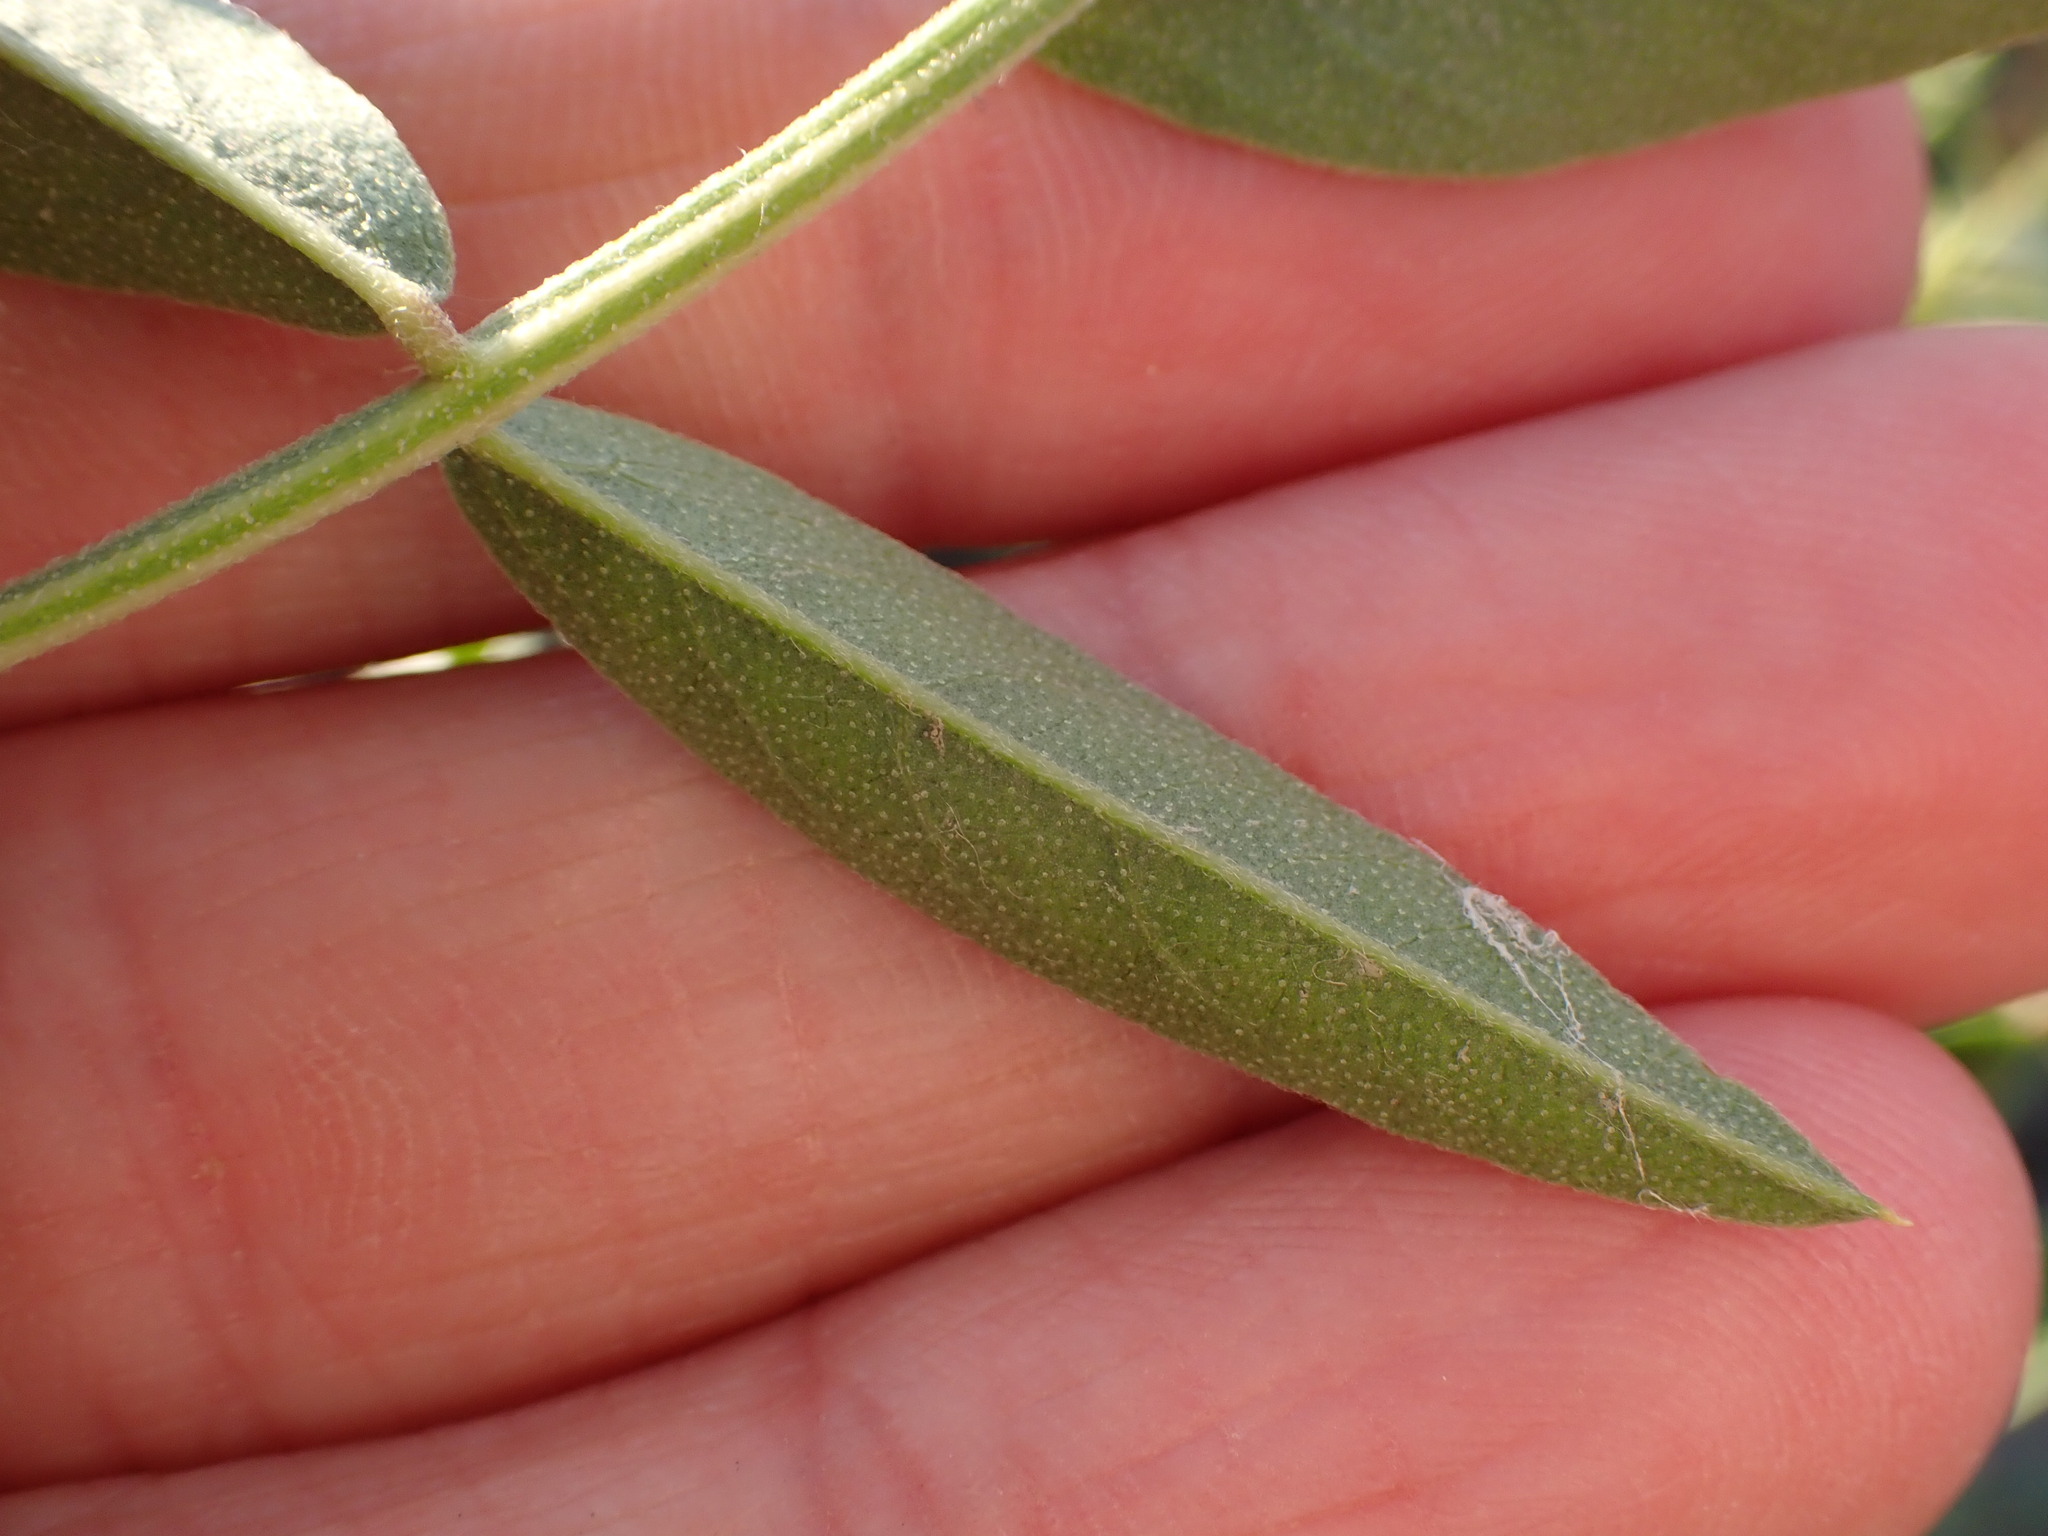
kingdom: Plantae
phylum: Tracheophyta
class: Magnoliopsida
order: Fabales
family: Fabaceae
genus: Glycyrrhiza
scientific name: Glycyrrhiza lepidota
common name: American liquorice
